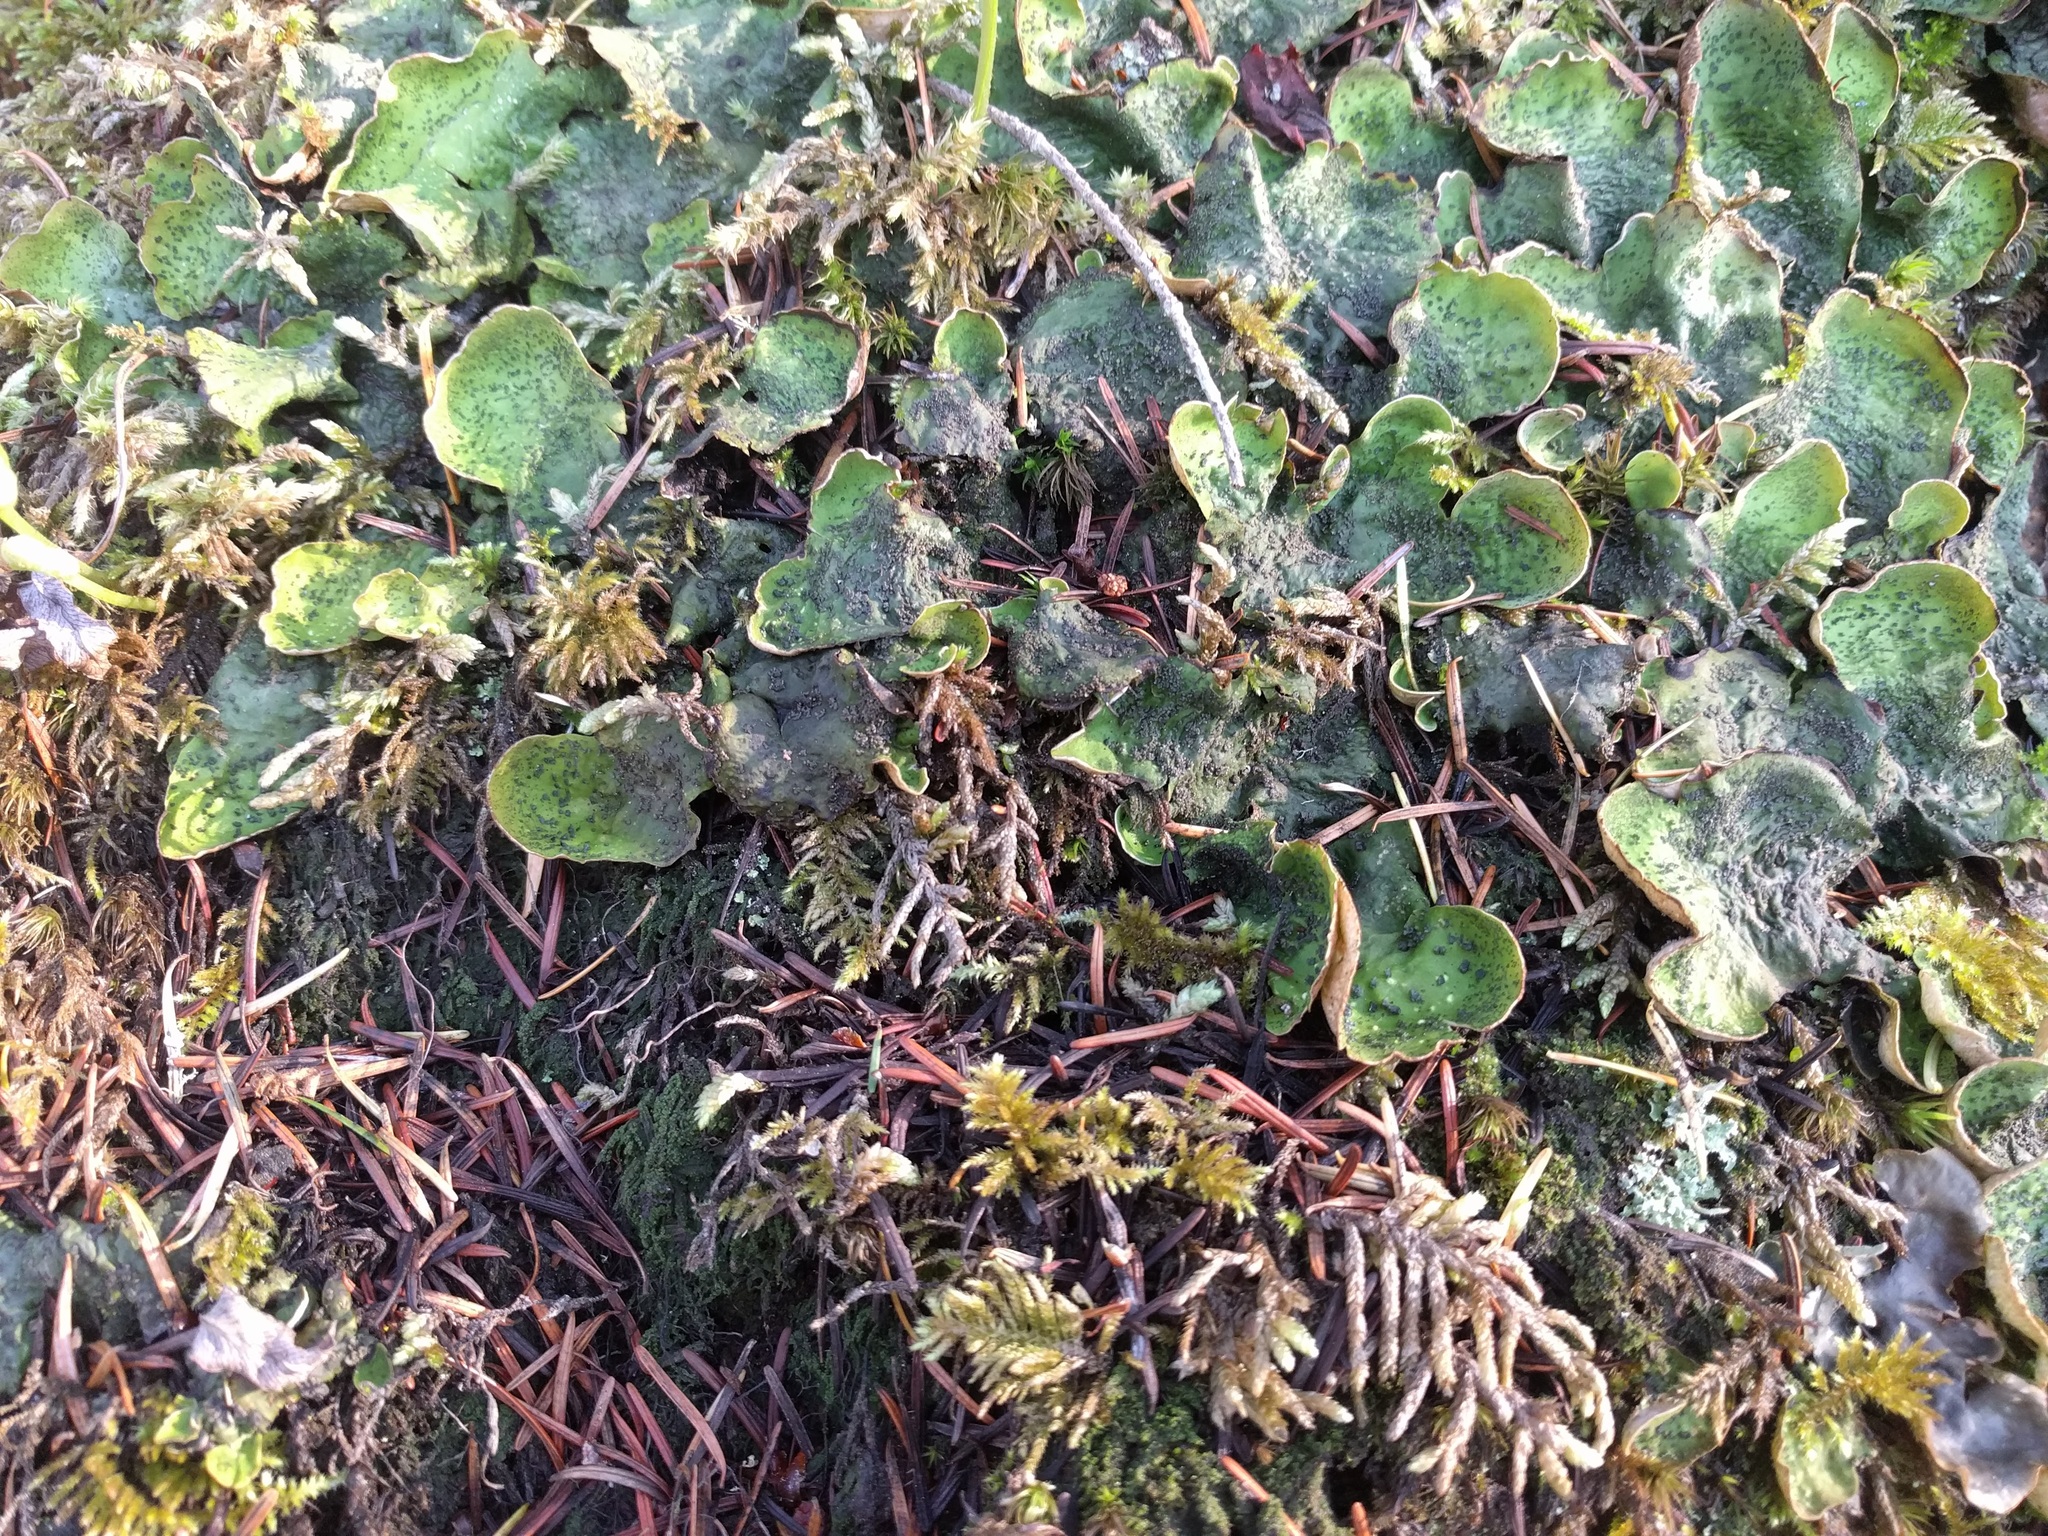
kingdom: Fungi
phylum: Ascomycota
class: Lecanoromycetes
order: Peltigerales
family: Peltigeraceae
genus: Peltigera
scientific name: Peltigera britannica
